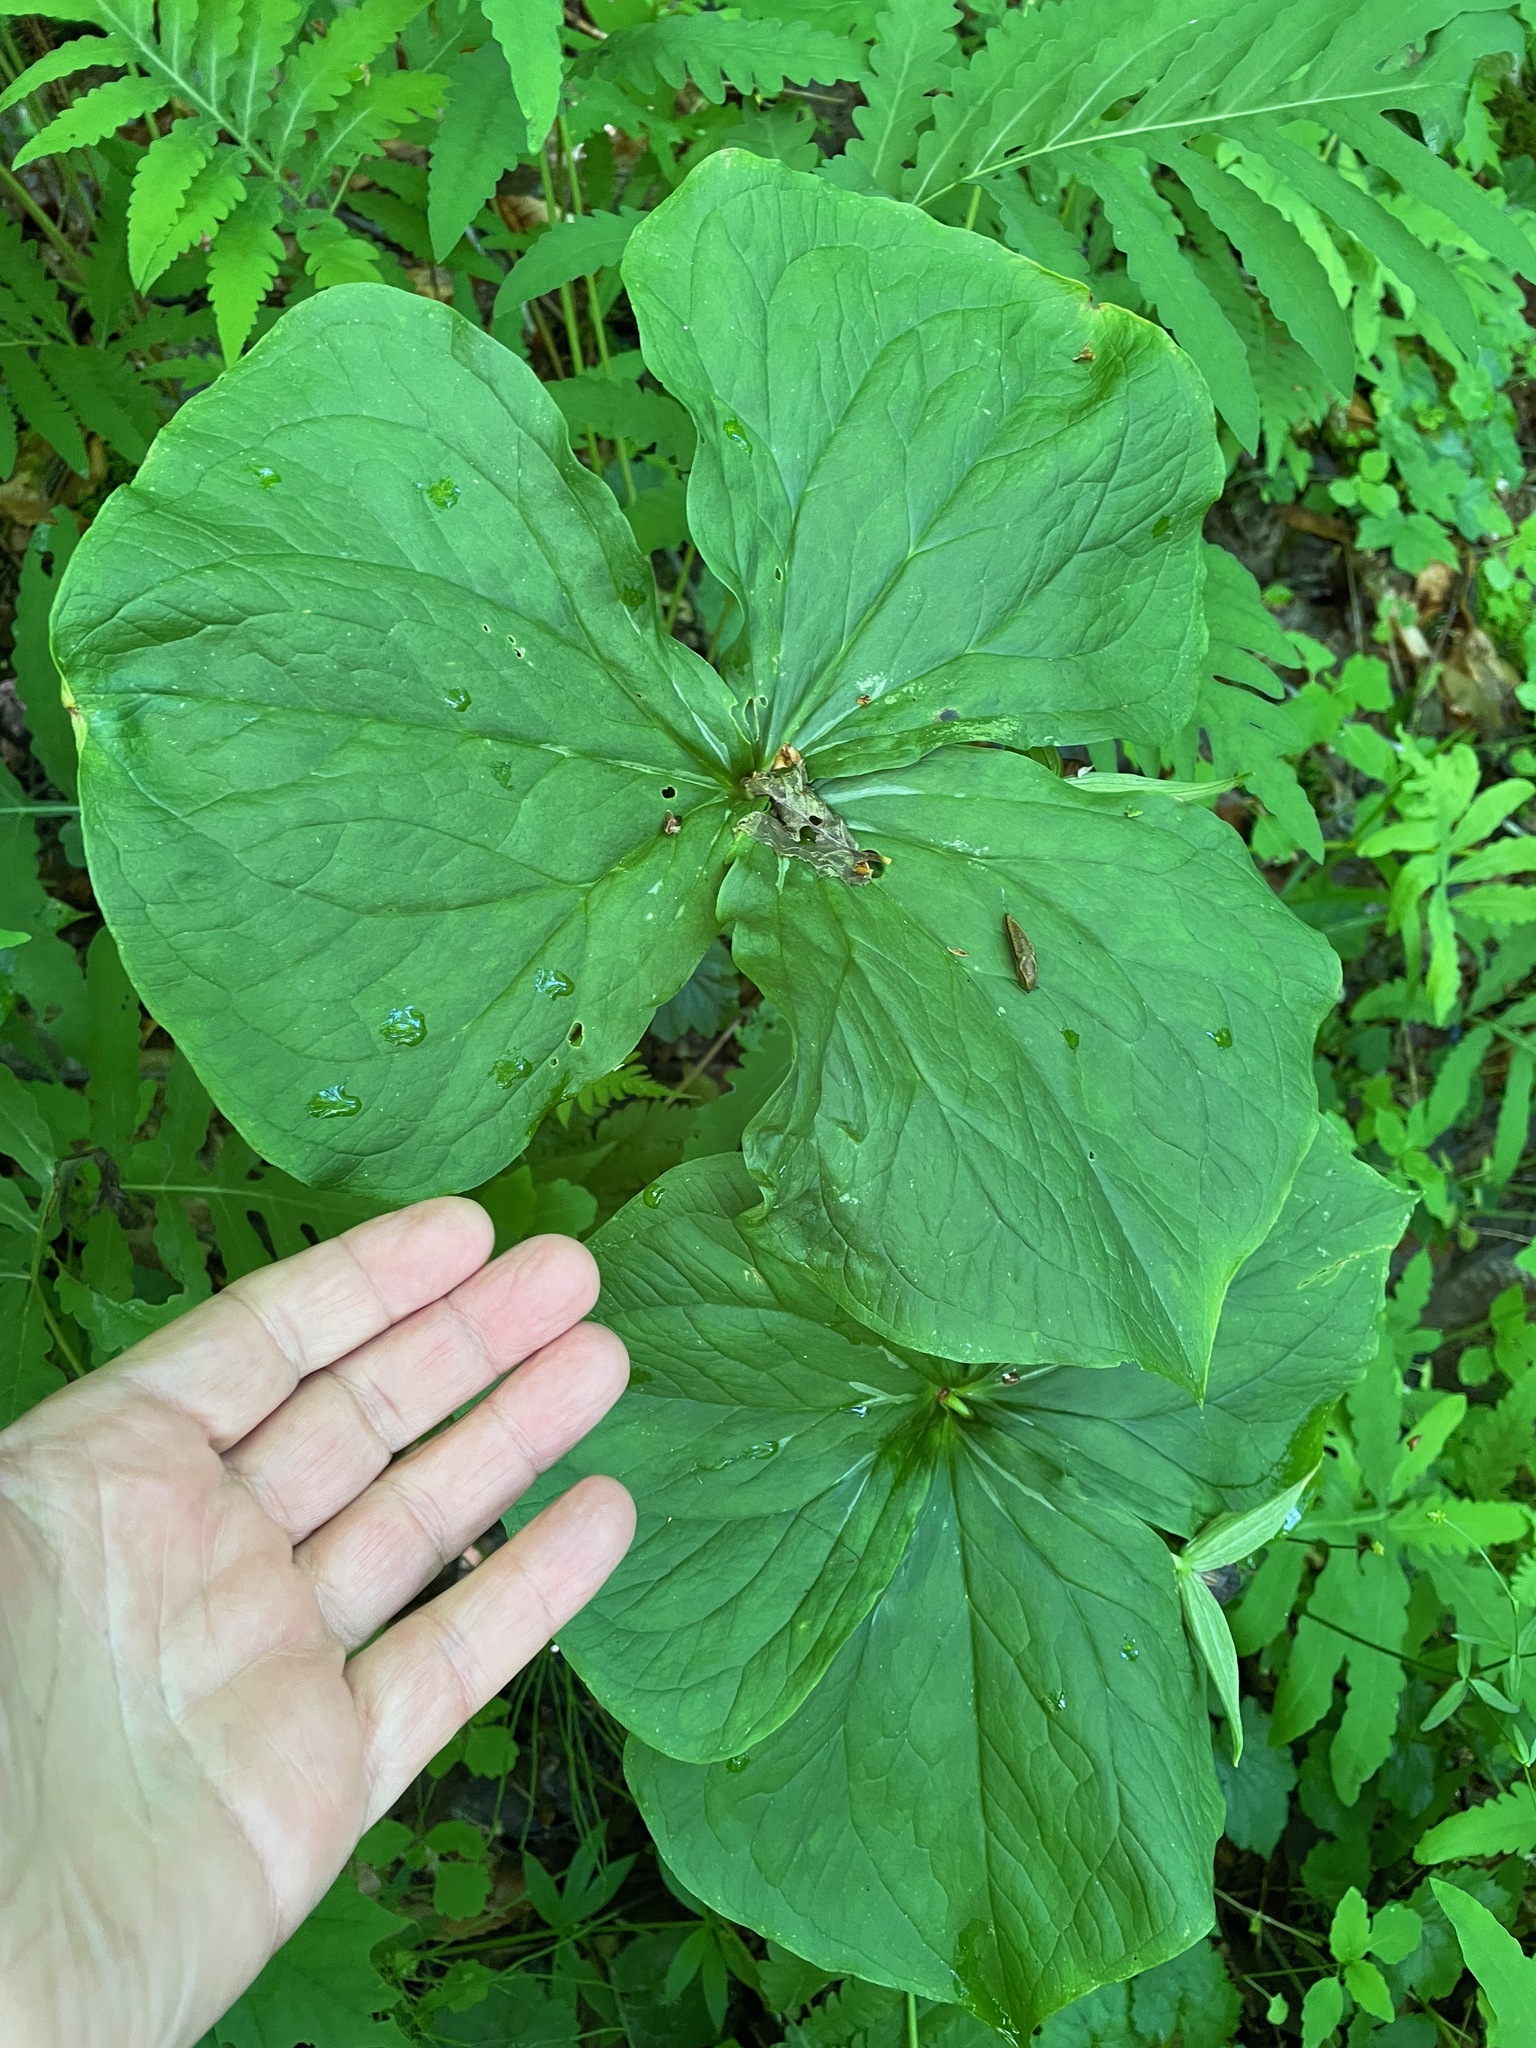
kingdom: Plantae
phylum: Tracheophyta
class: Liliopsida
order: Liliales
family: Melanthiaceae
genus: Trillium
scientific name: Trillium erectum
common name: Purple trillium
